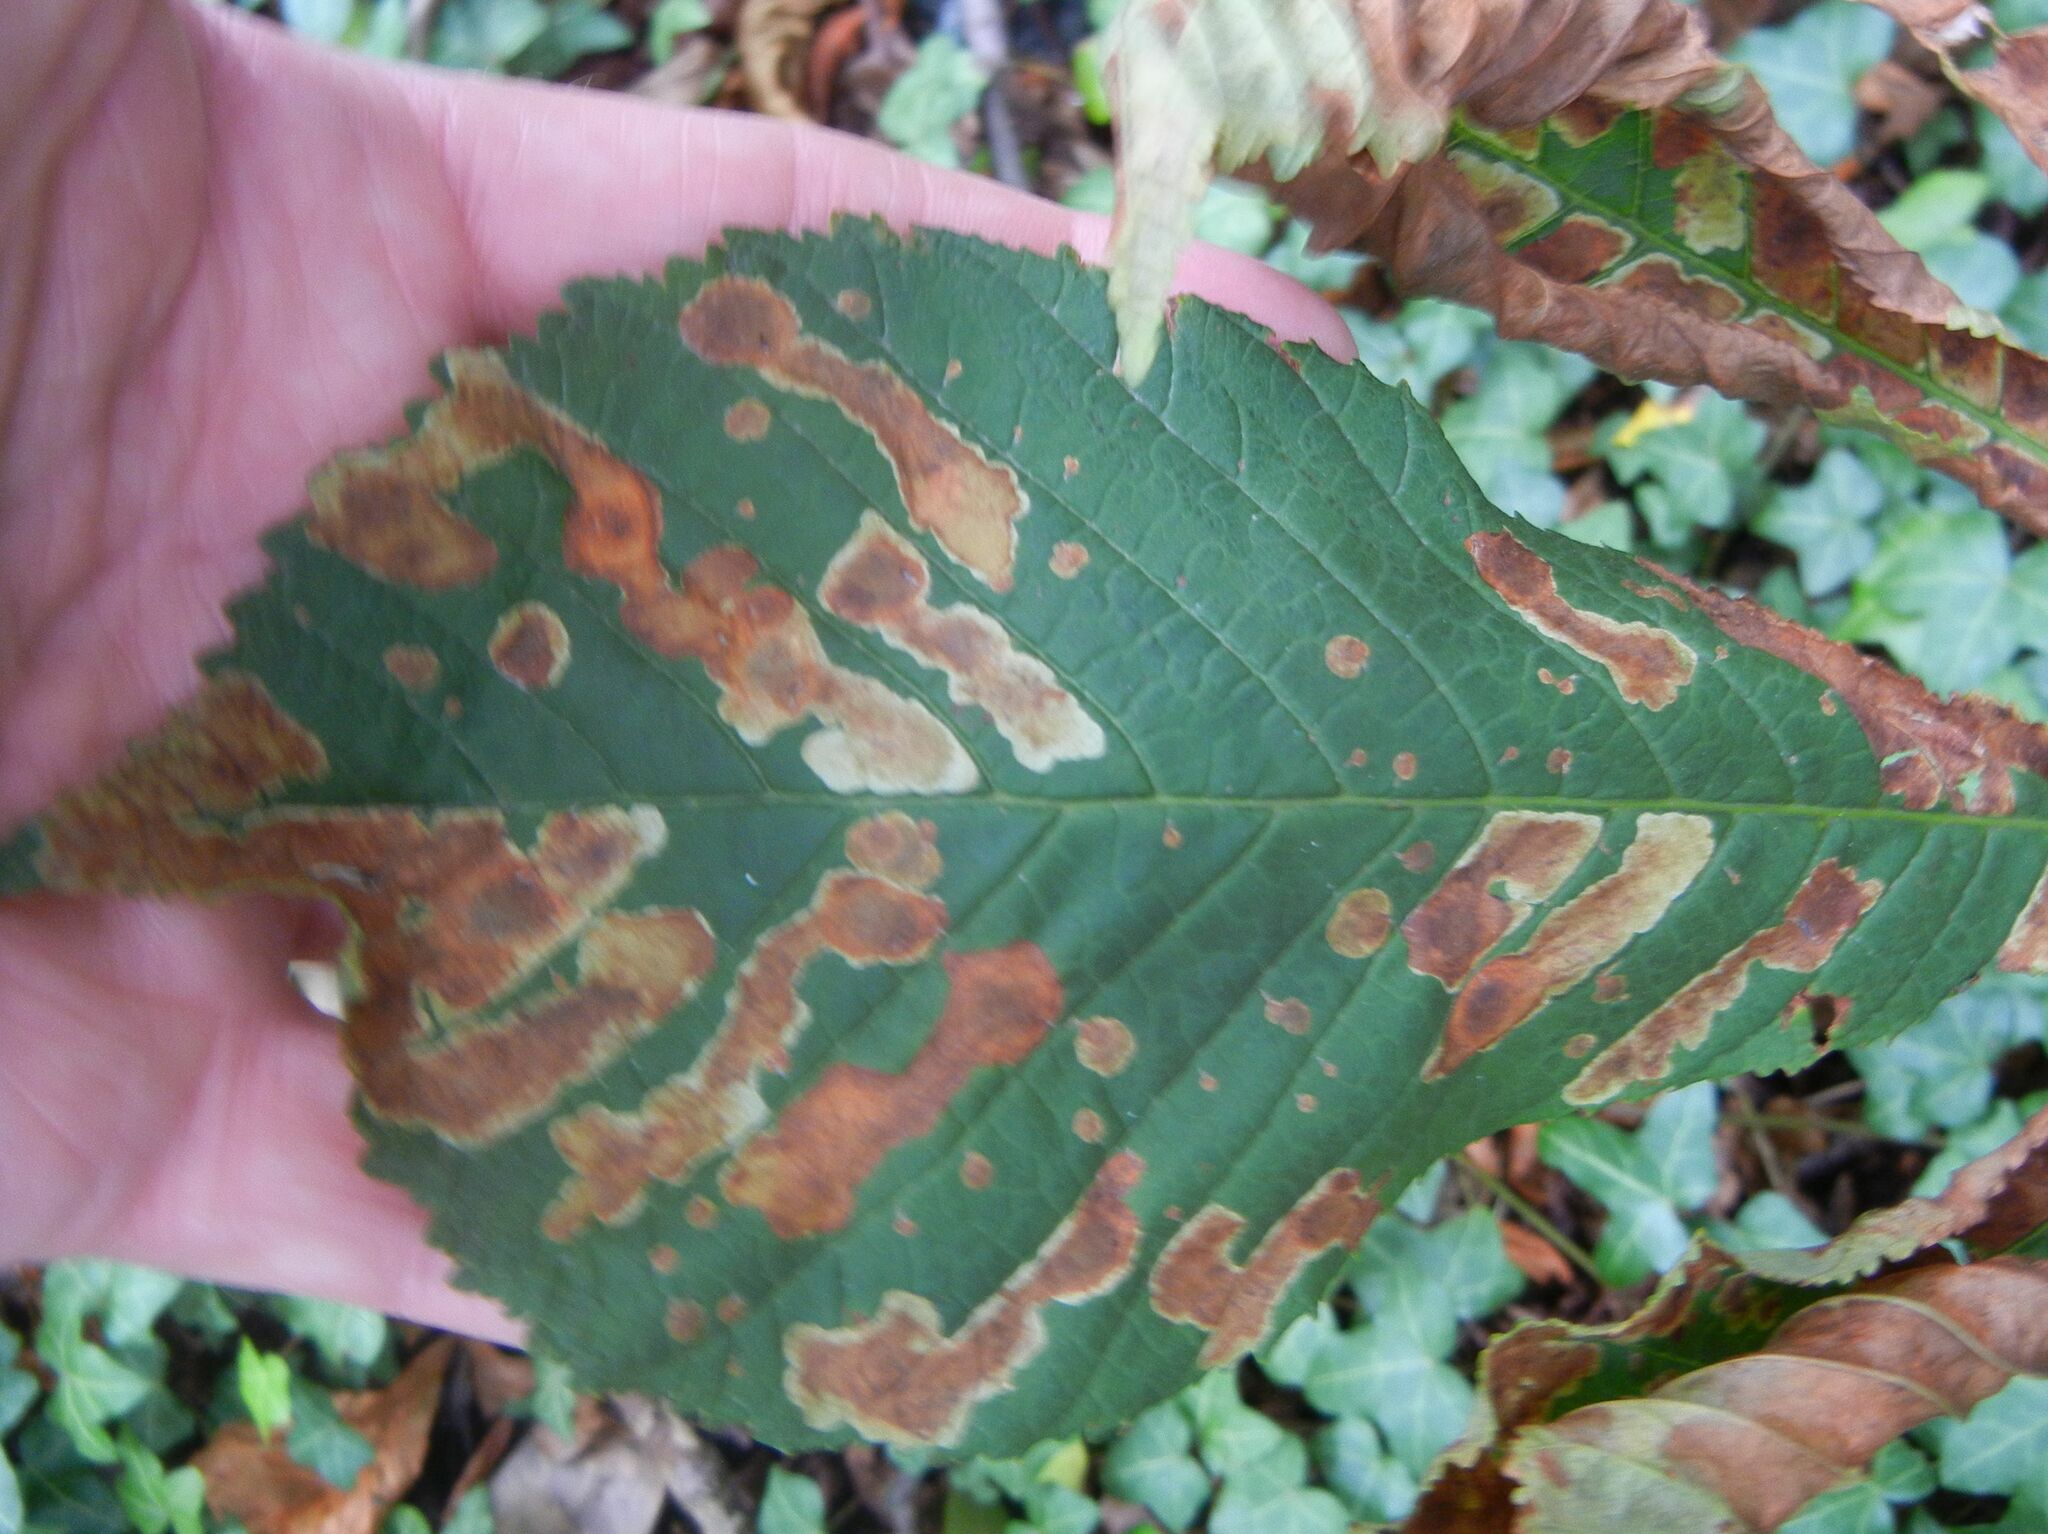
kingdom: Animalia
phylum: Arthropoda
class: Insecta
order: Lepidoptera
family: Gracillariidae
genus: Cameraria
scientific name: Cameraria ohridella
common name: Horse-chestnut leaf-miner
